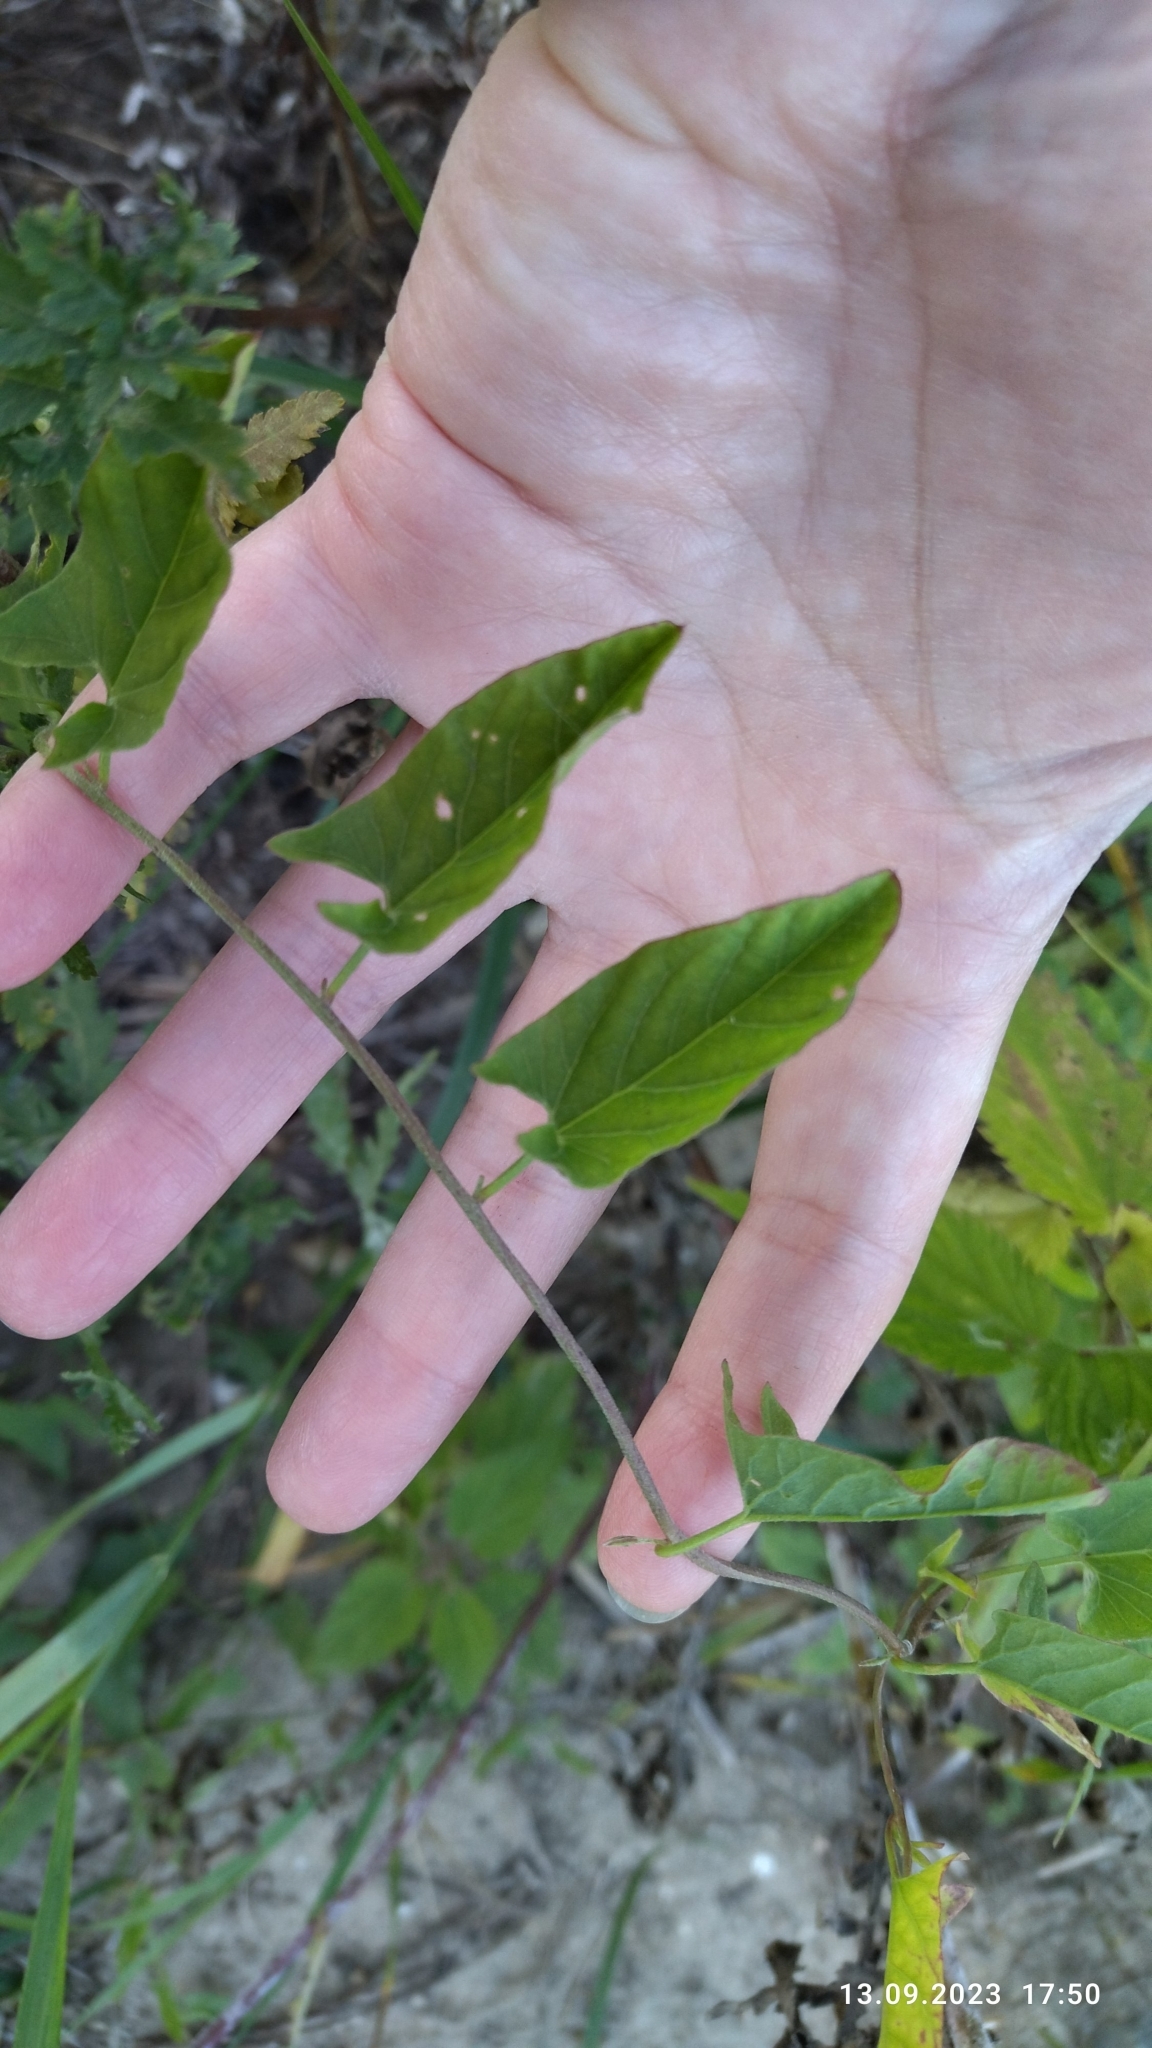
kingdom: Plantae
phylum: Tracheophyta
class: Magnoliopsida
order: Solanales
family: Convolvulaceae
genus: Convolvulus
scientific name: Convolvulus arvensis
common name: Field bindweed
